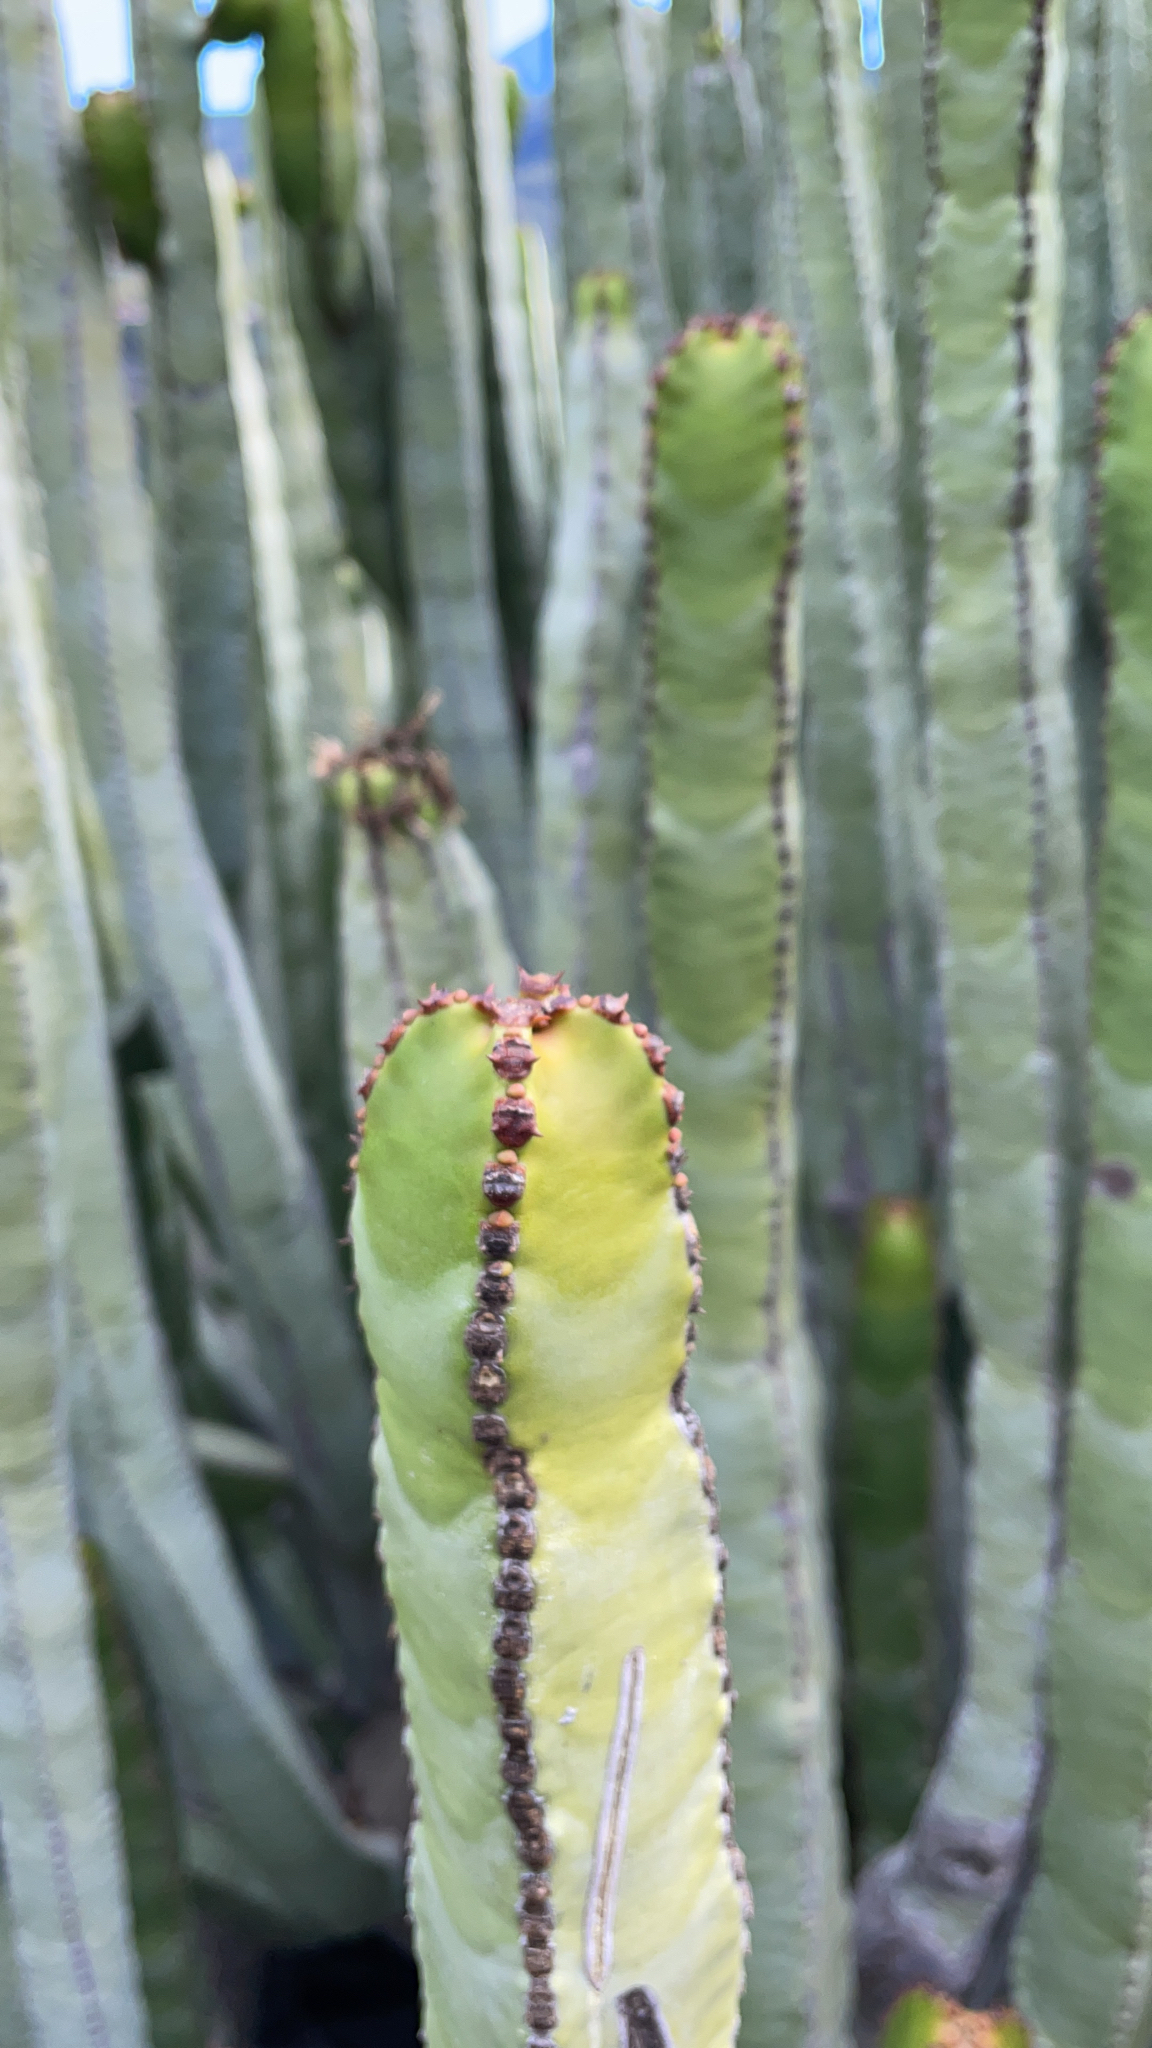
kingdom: Plantae
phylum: Tracheophyta
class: Magnoliopsida
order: Malpighiales
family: Euphorbiaceae
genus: Euphorbia
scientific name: Euphorbia canariensis
